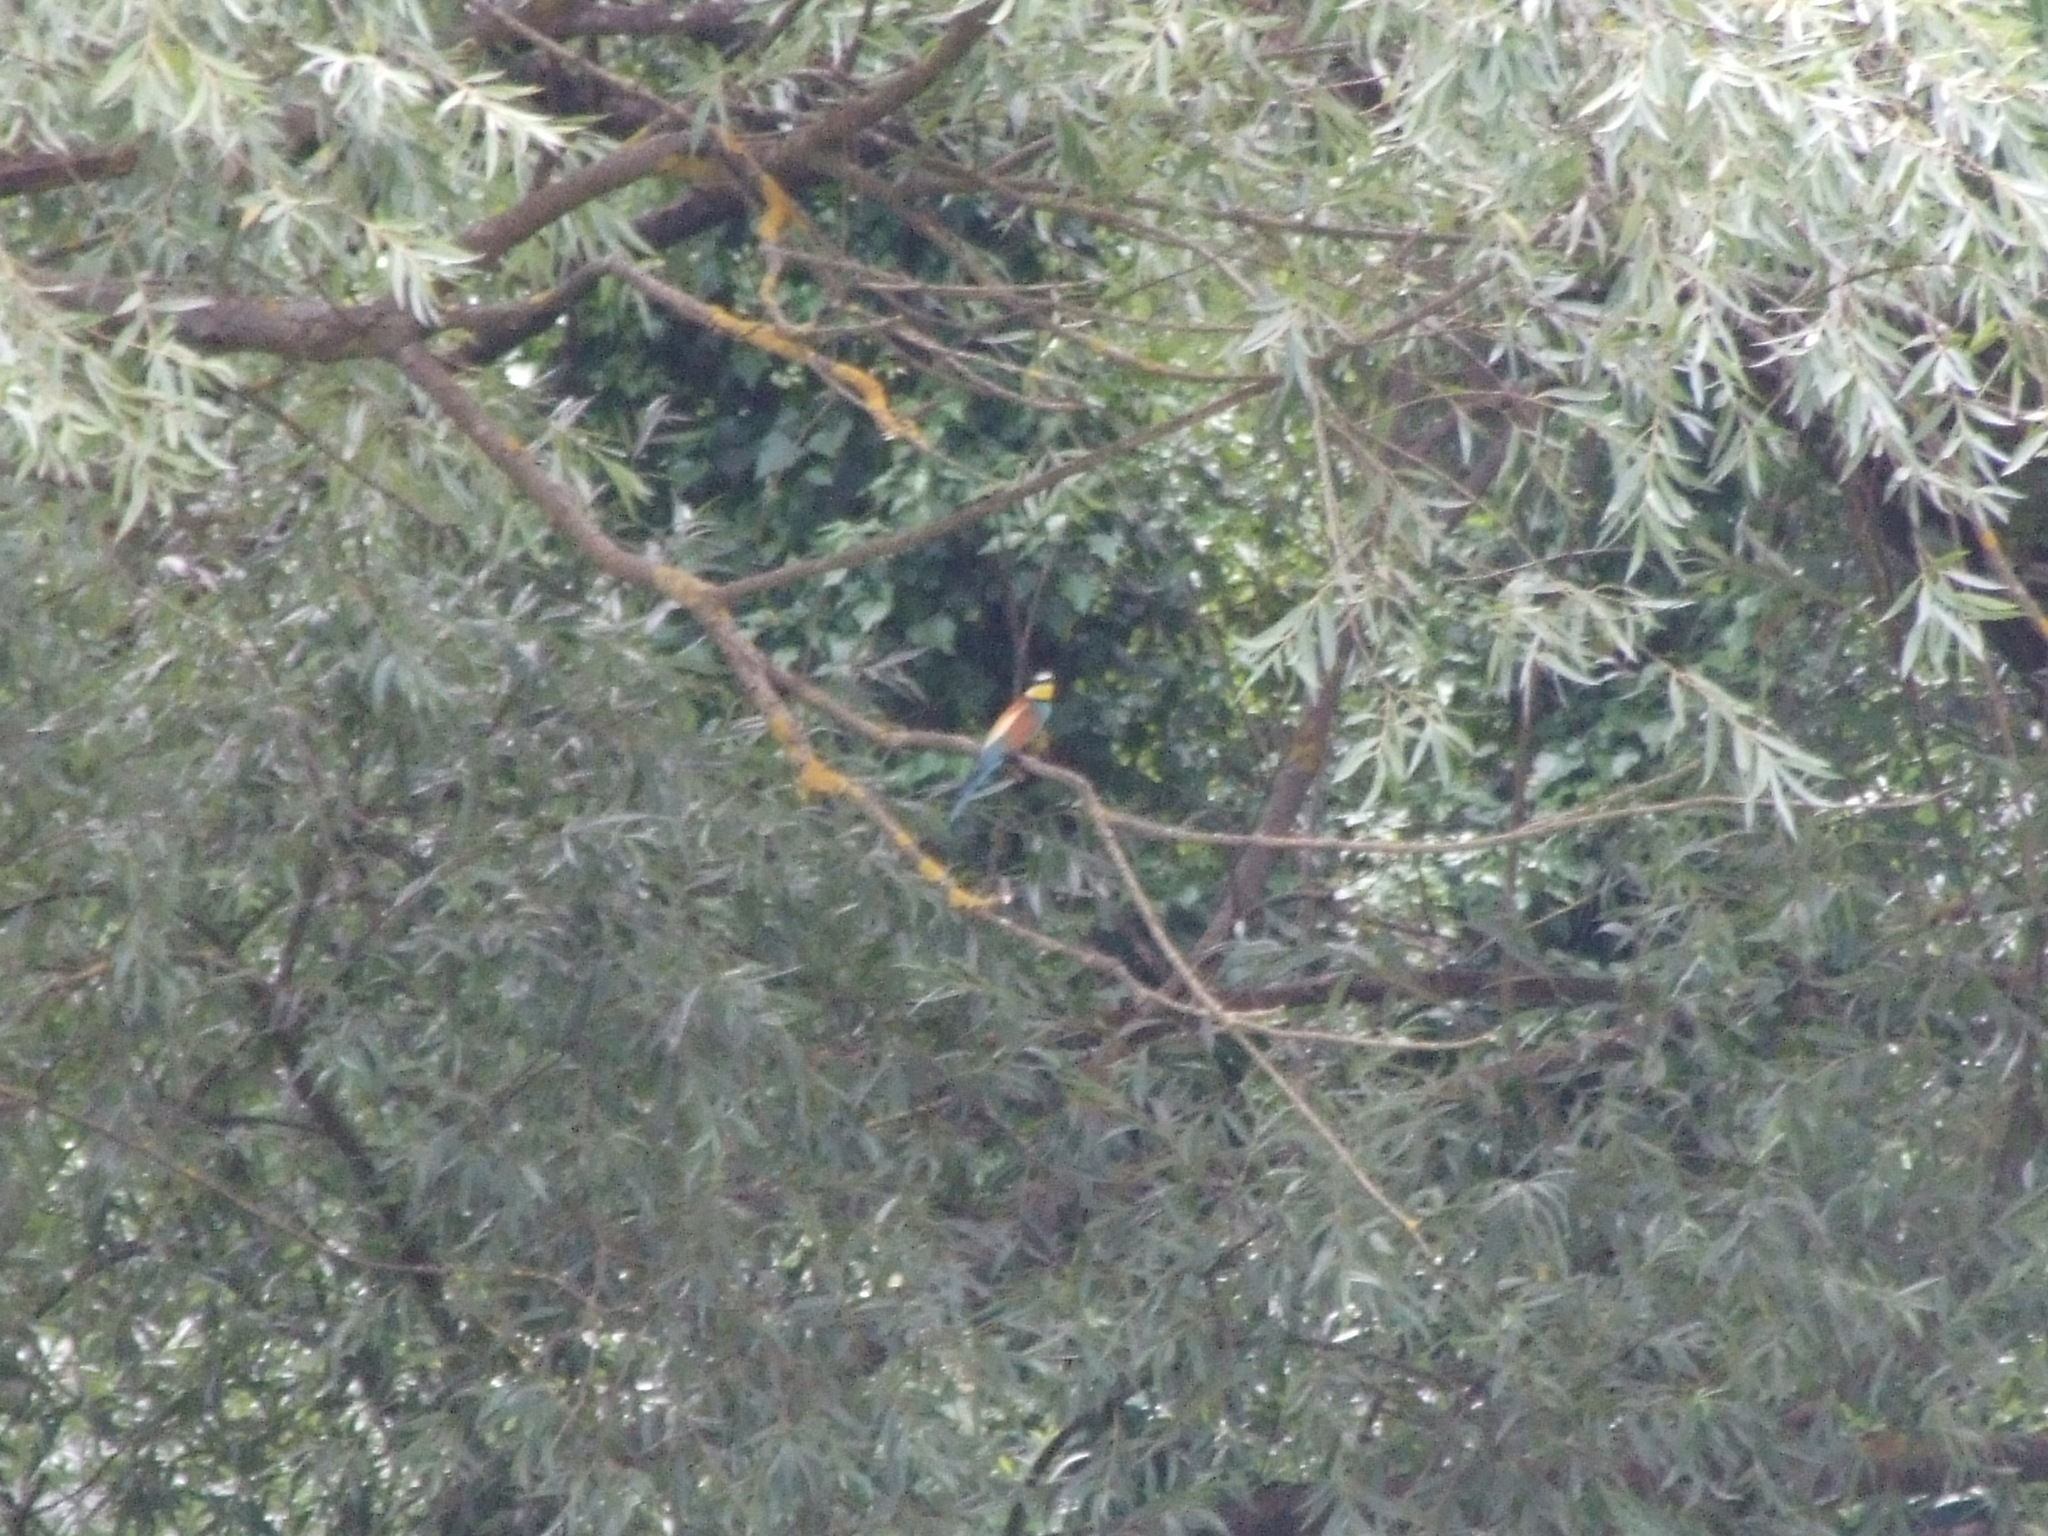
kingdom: Animalia
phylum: Chordata
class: Aves
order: Coraciiformes
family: Meropidae
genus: Merops
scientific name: Merops apiaster
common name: European bee-eater
